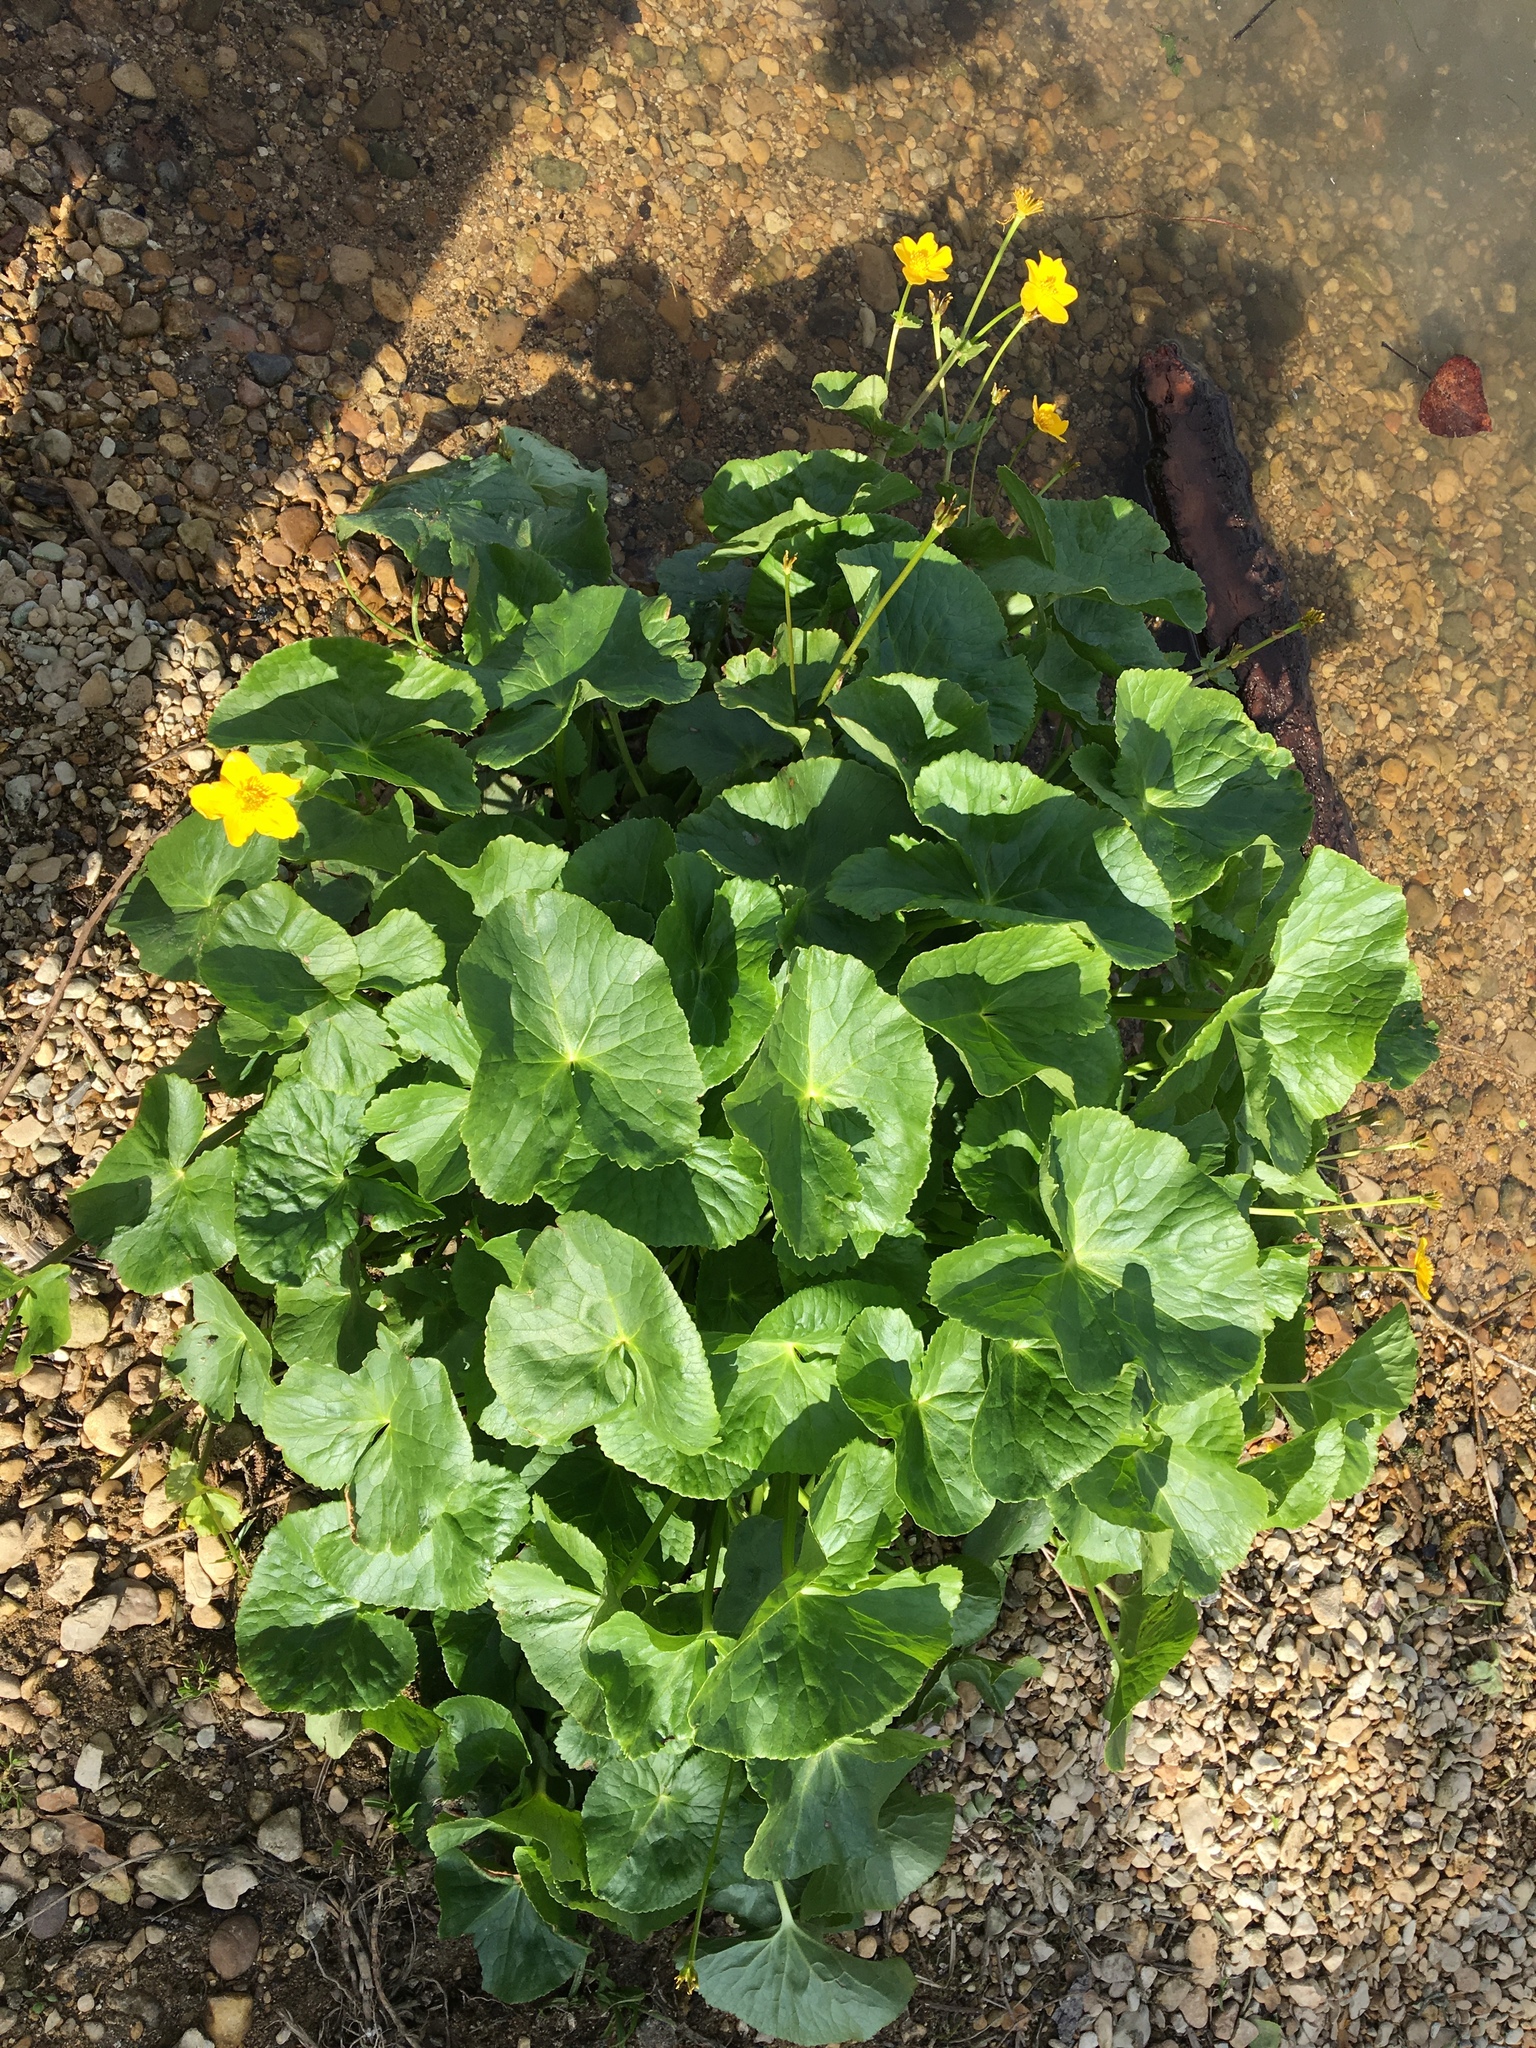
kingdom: Plantae
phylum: Tracheophyta
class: Magnoliopsida
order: Ranunculales
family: Ranunculaceae
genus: Caltha
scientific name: Caltha palustris
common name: Marsh marigold
